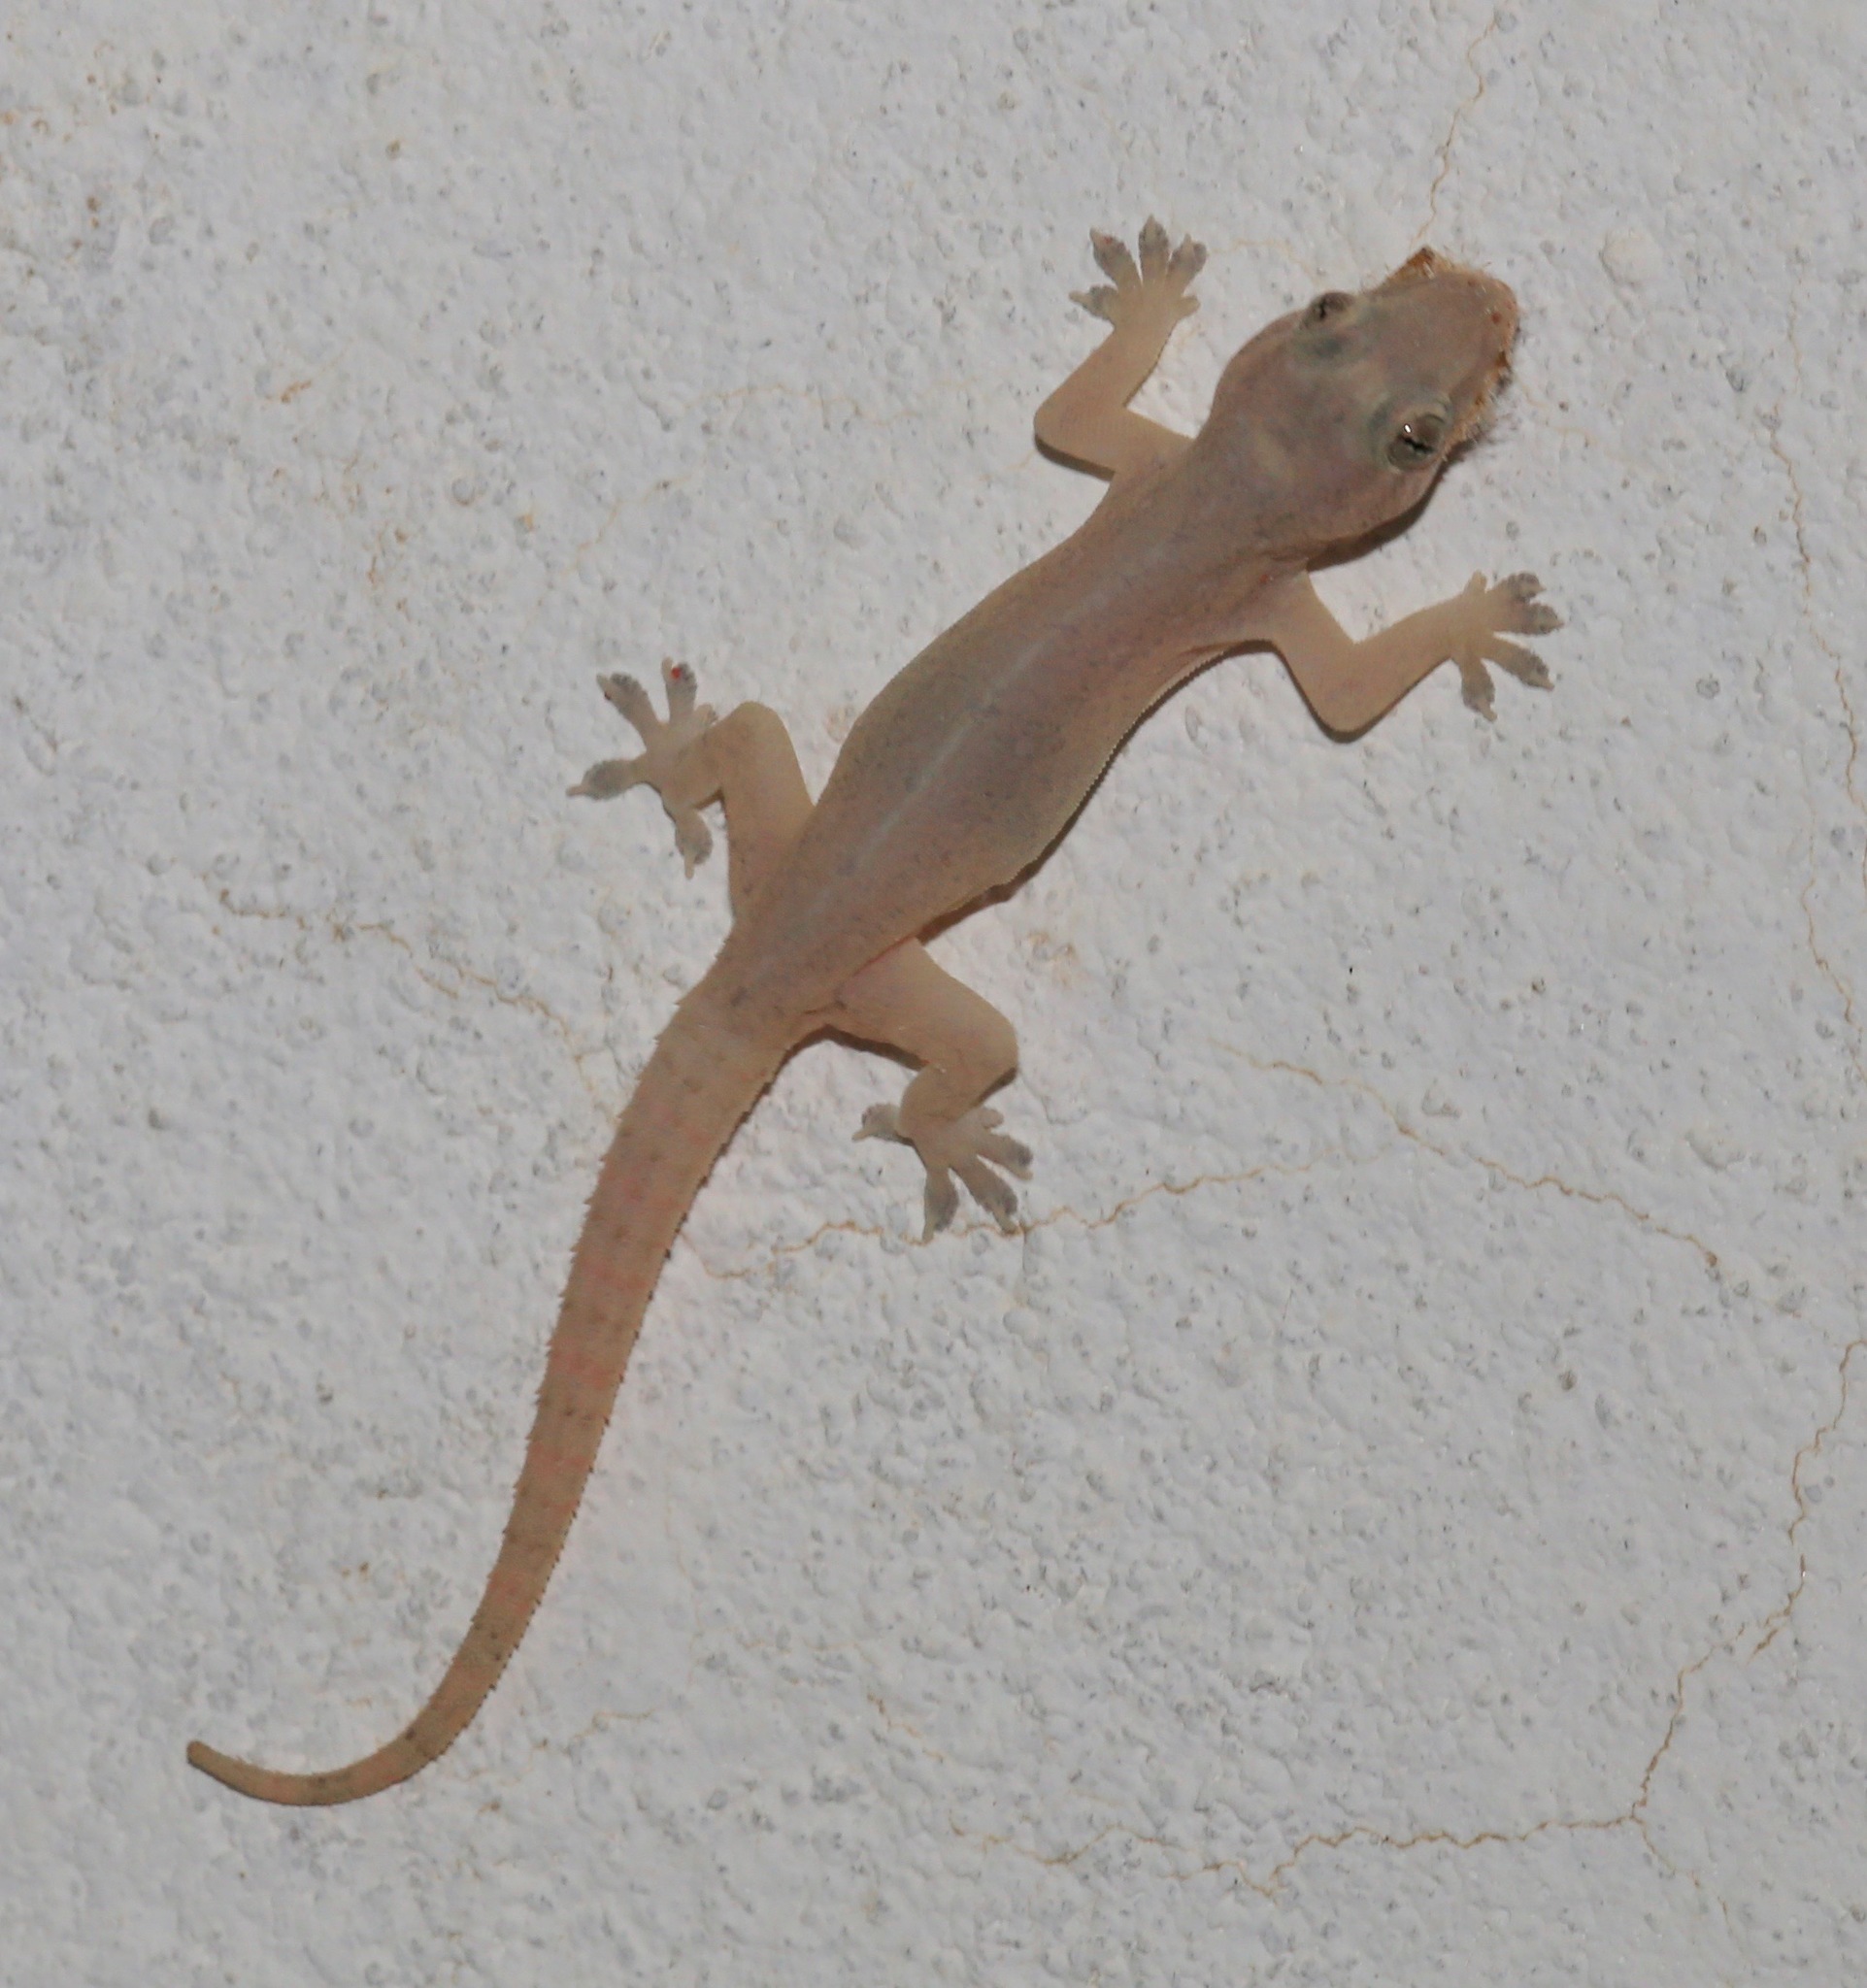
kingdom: Animalia
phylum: Chordata
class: Squamata
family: Gekkonidae
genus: Hemidactylus
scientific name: Hemidactylus frenatus
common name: Common house gecko
